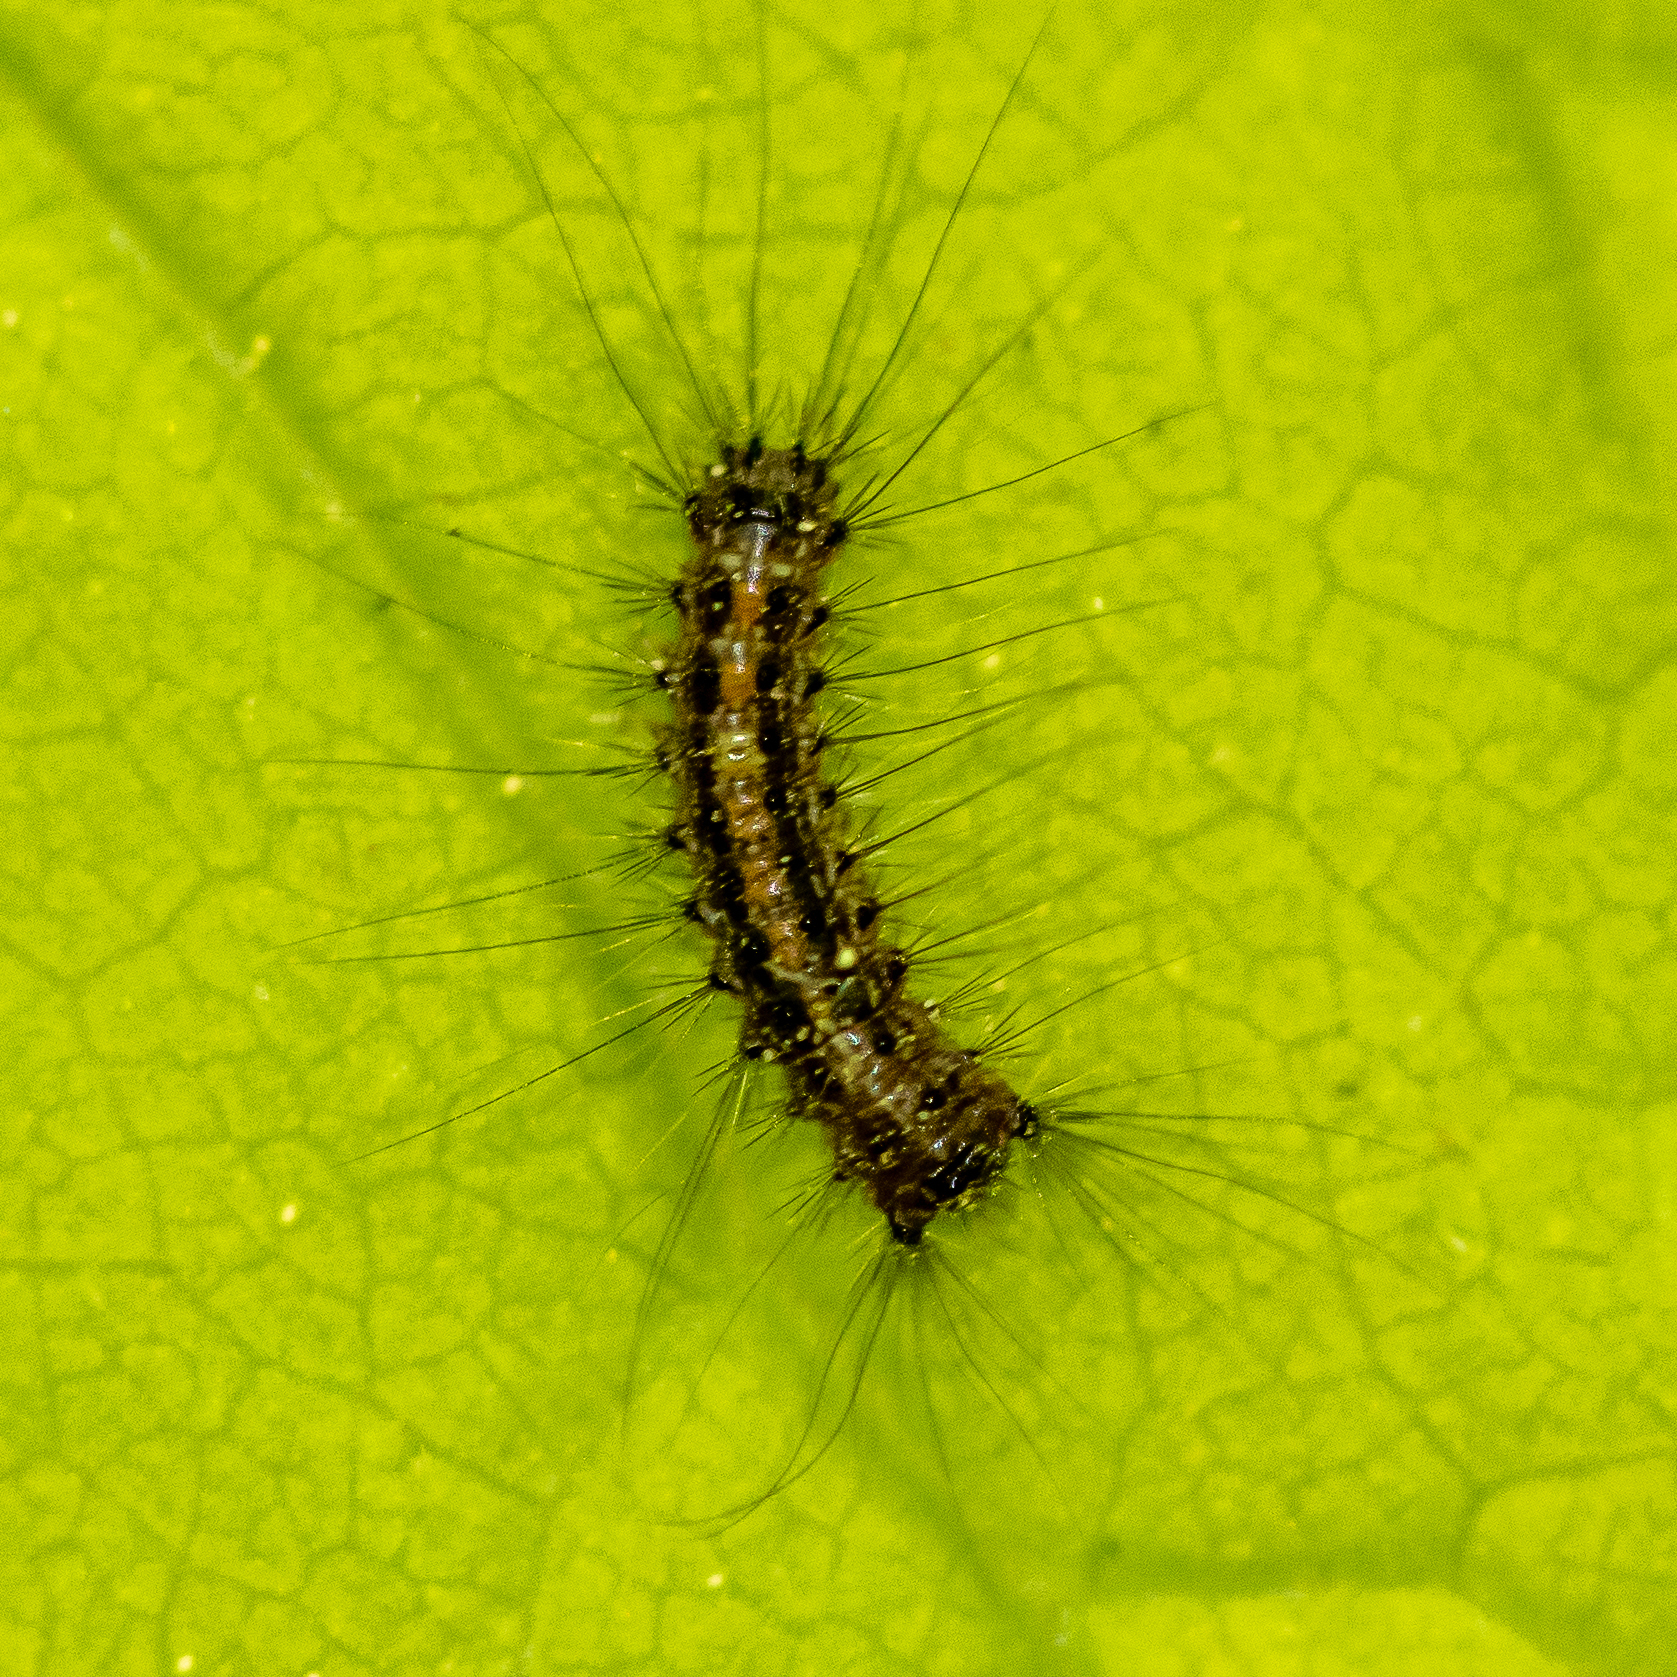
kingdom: Animalia
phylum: Arthropoda
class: Insecta
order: Lepidoptera
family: Erebidae
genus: Lymantria
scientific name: Lymantria dispar
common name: Gypsy moth
